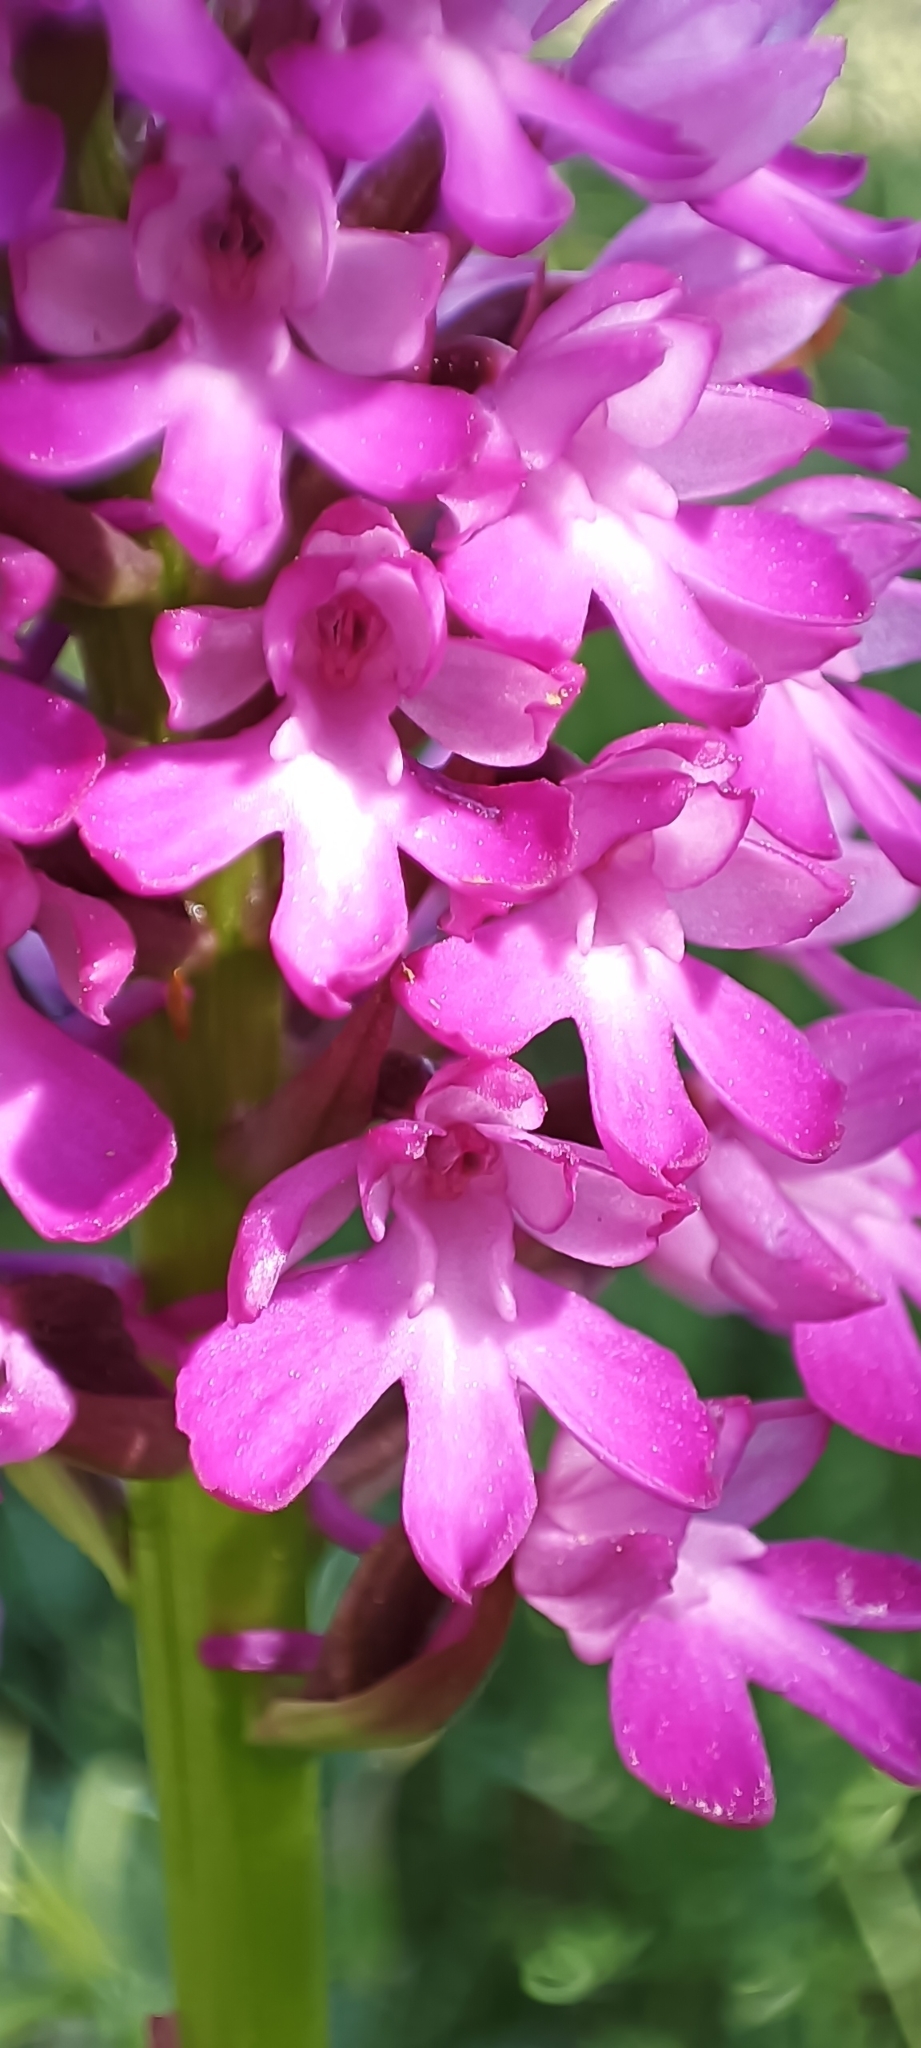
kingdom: Plantae
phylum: Tracheophyta
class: Liliopsida
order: Asparagales
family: Orchidaceae
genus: Anacamptis
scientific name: Anacamptis pyramidalis
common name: Pyramidal orchid
